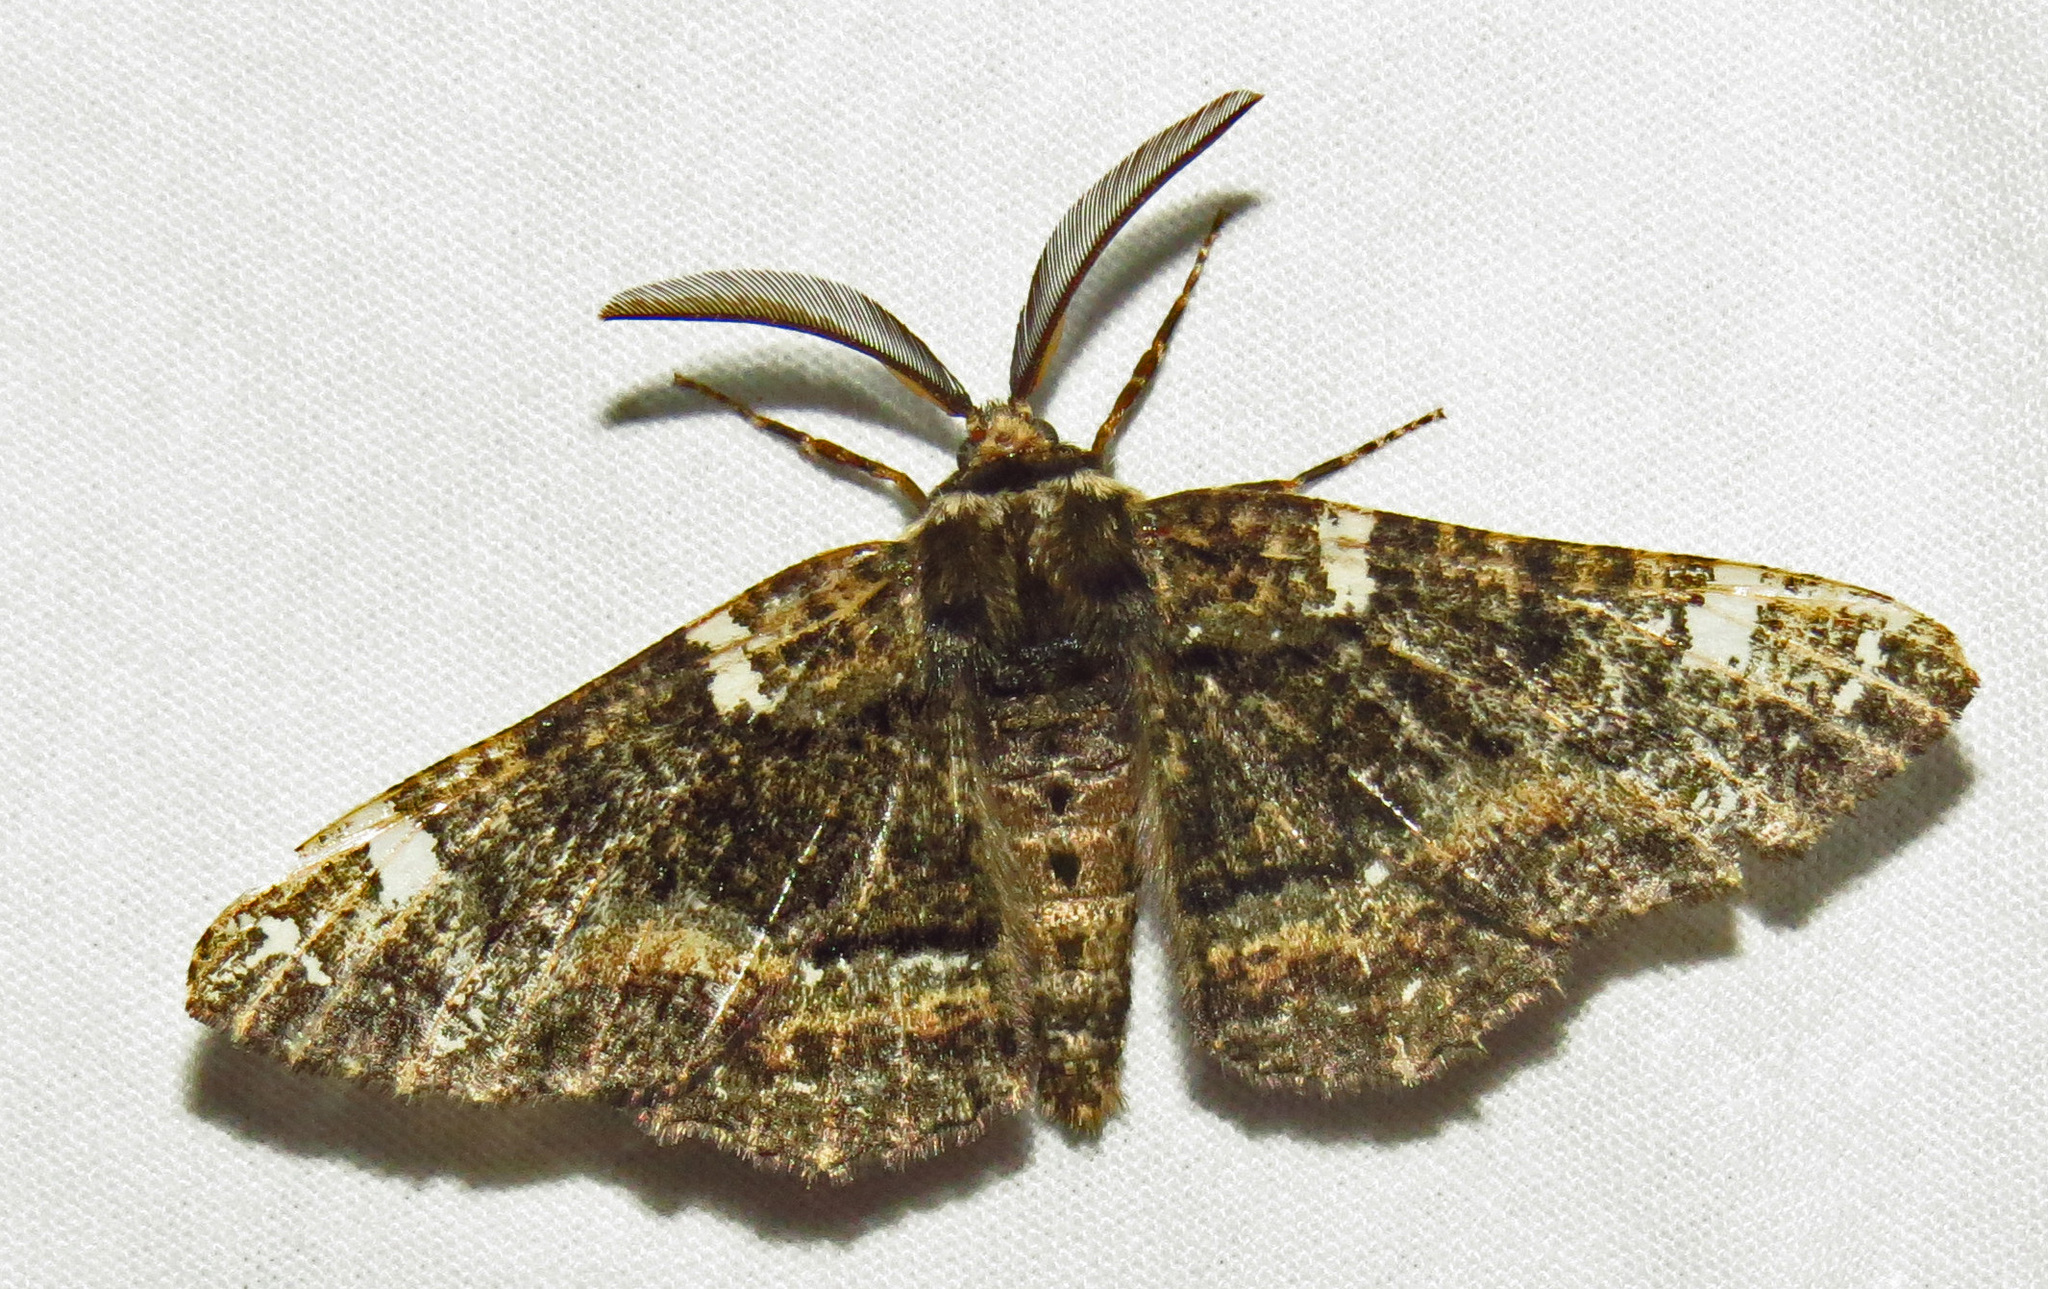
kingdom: Animalia
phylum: Arthropoda
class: Insecta
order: Lepidoptera
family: Geometridae
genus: Phaeoura
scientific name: Phaeoura quernaria
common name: Oak beauty
